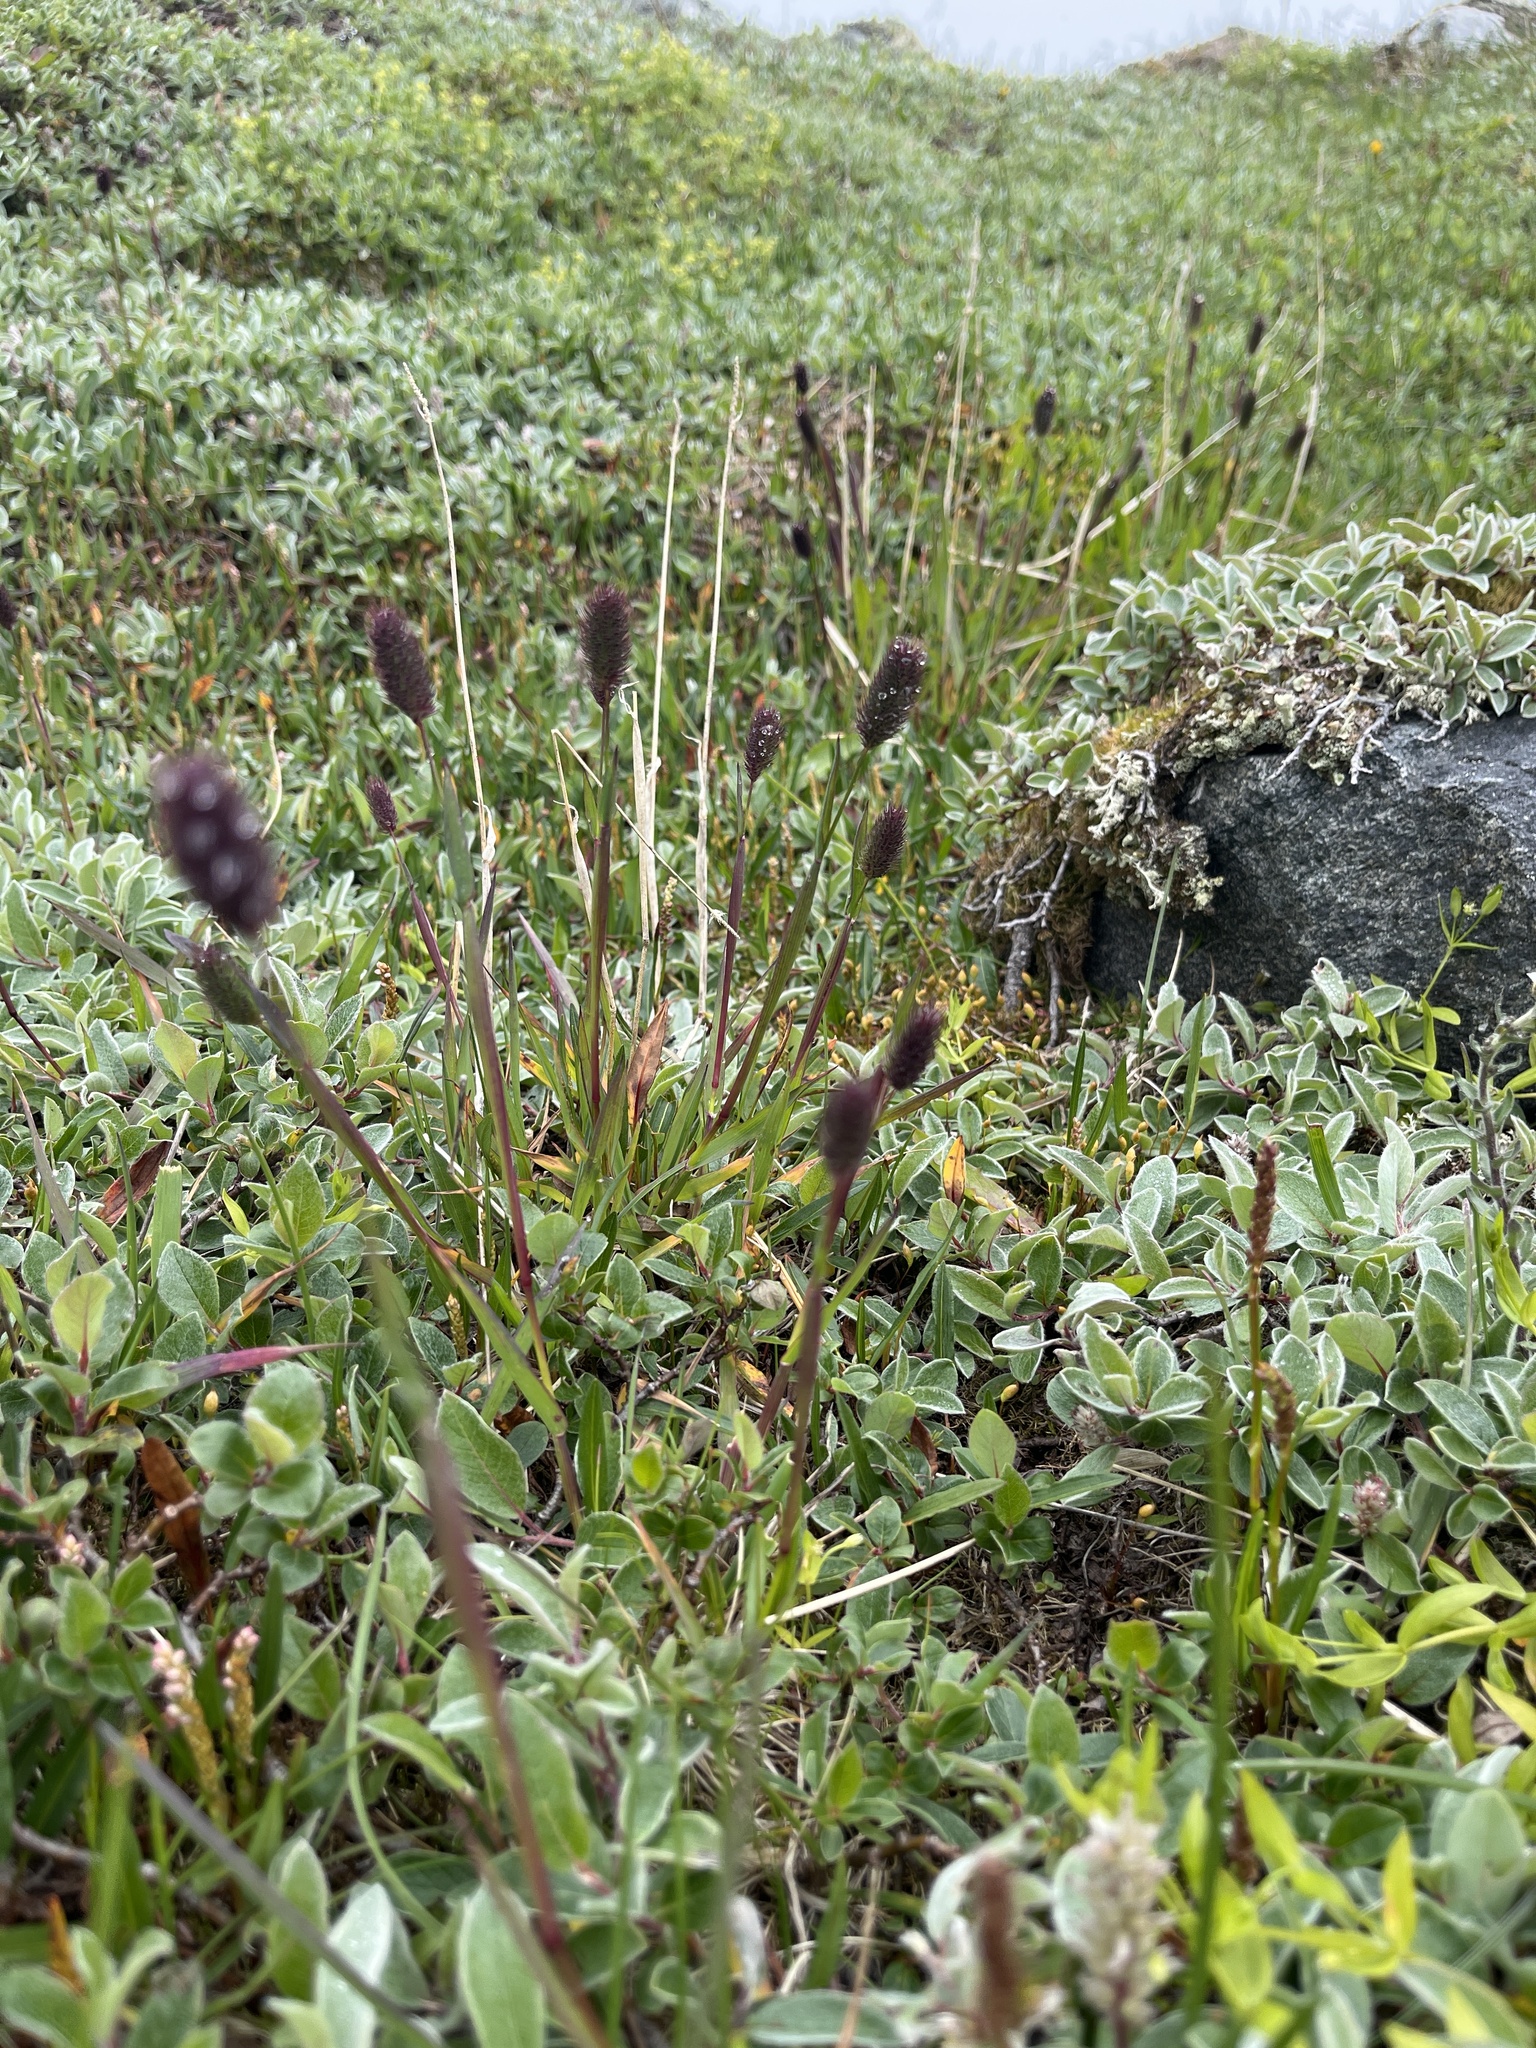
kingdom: Plantae
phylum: Tracheophyta
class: Liliopsida
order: Poales
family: Poaceae
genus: Phleum
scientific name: Phleum alpinum
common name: Alpine cat's-tail
